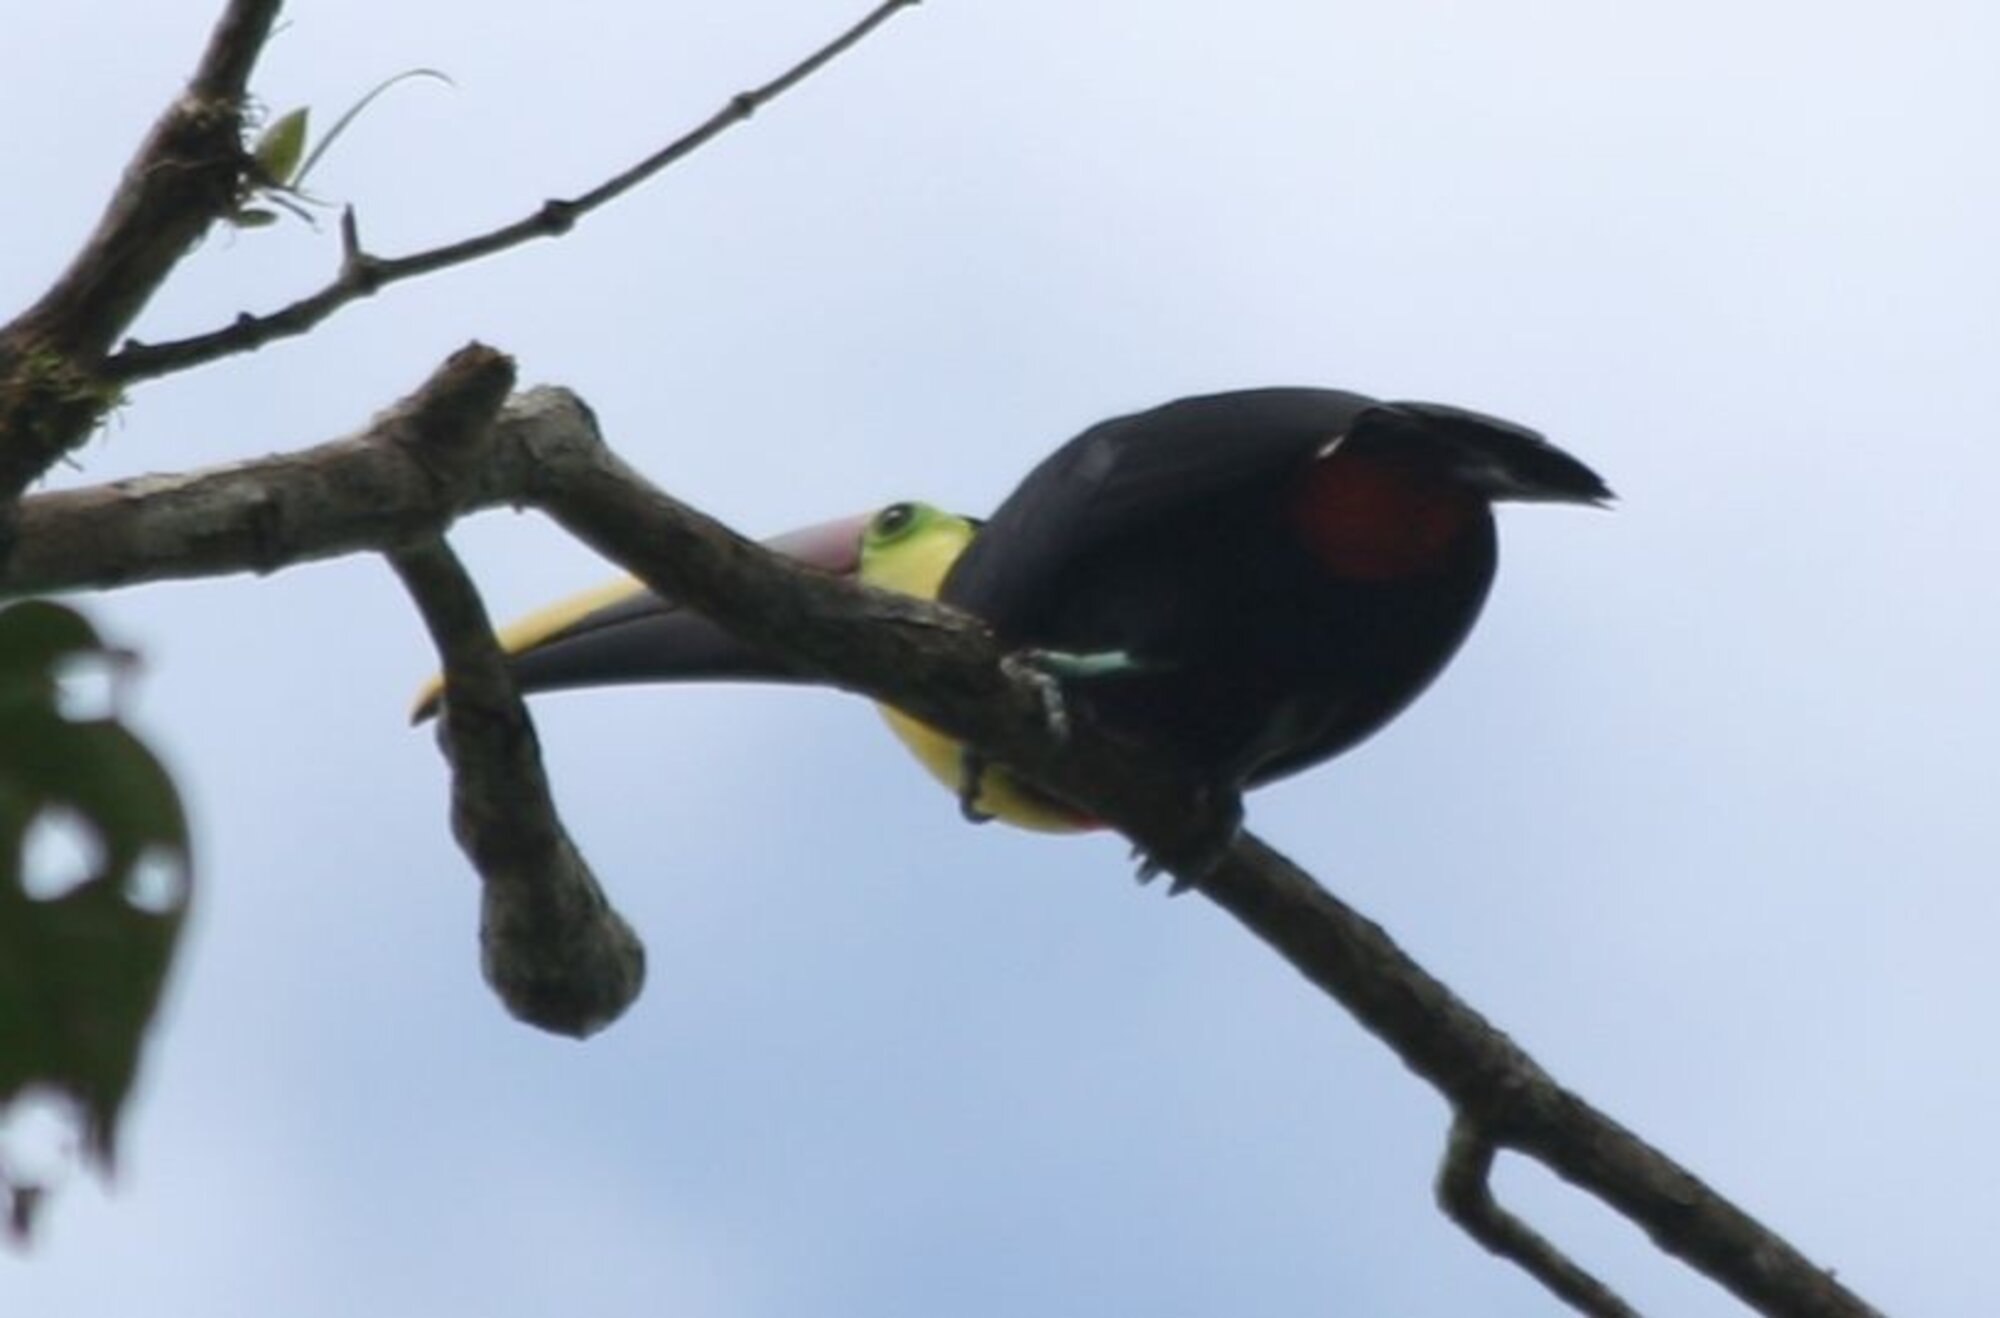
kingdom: Animalia
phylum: Chordata
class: Aves
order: Piciformes
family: Ramphastidae
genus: Ramphastos
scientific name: Ramphastos ambiguus
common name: Yellow-throated toucan
